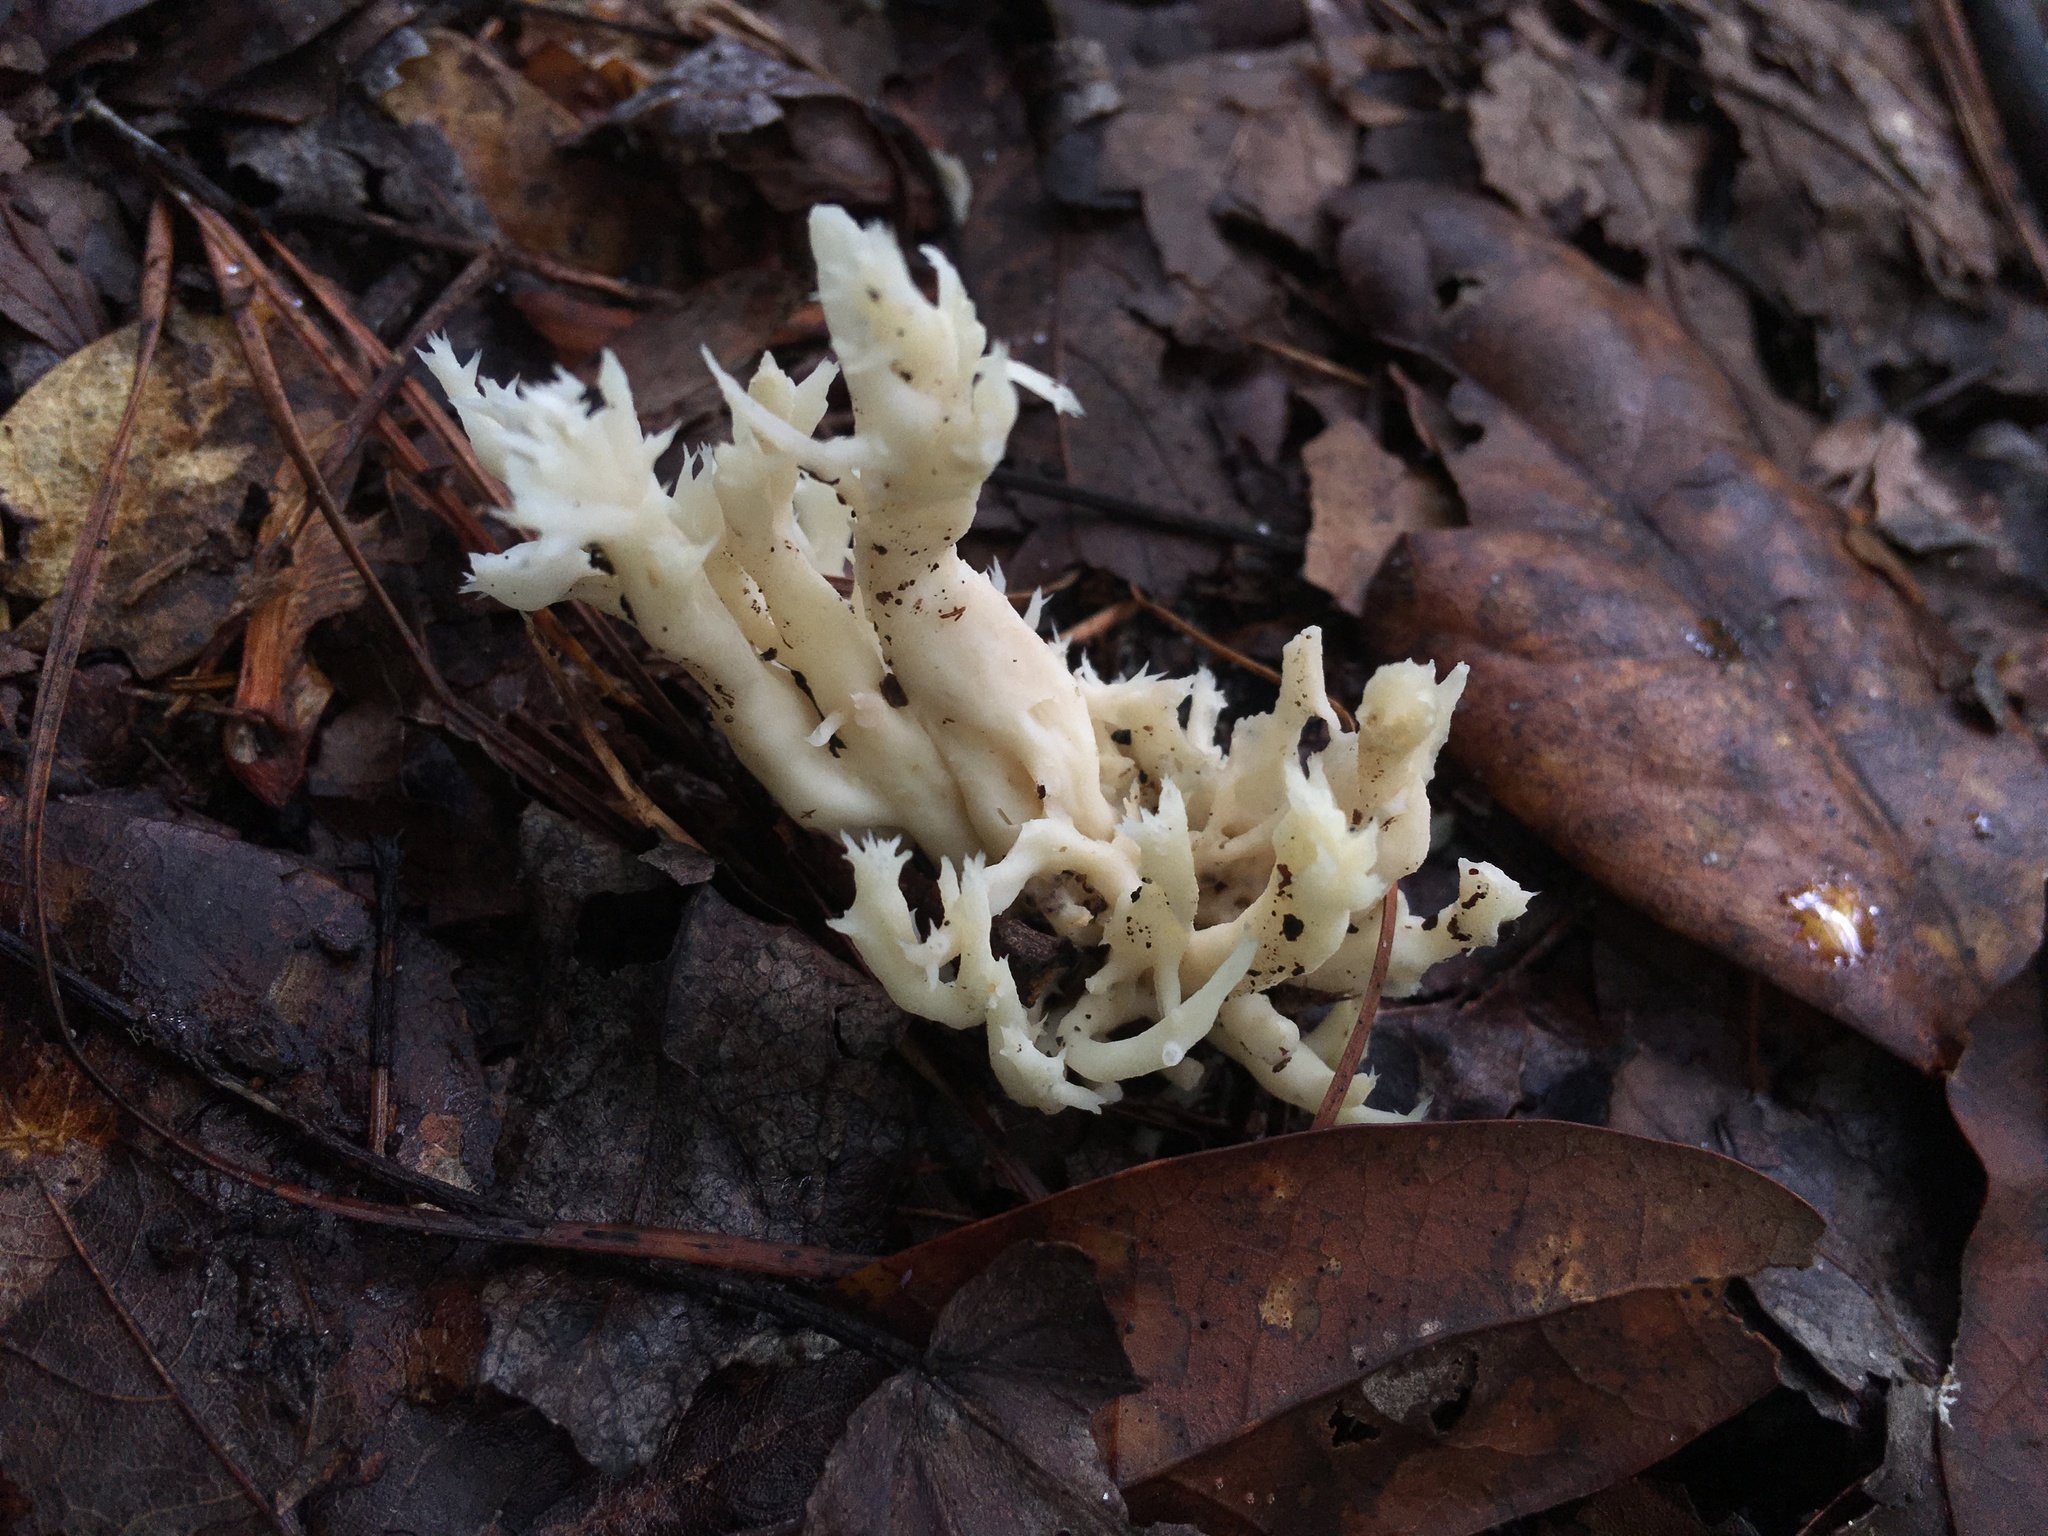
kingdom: Fungi
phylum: Basidiomycota
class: Agaricomycetes
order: Cantharellales
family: Hydnaceae
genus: Clavulina
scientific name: Clavulina coralloides
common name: Crested coral
